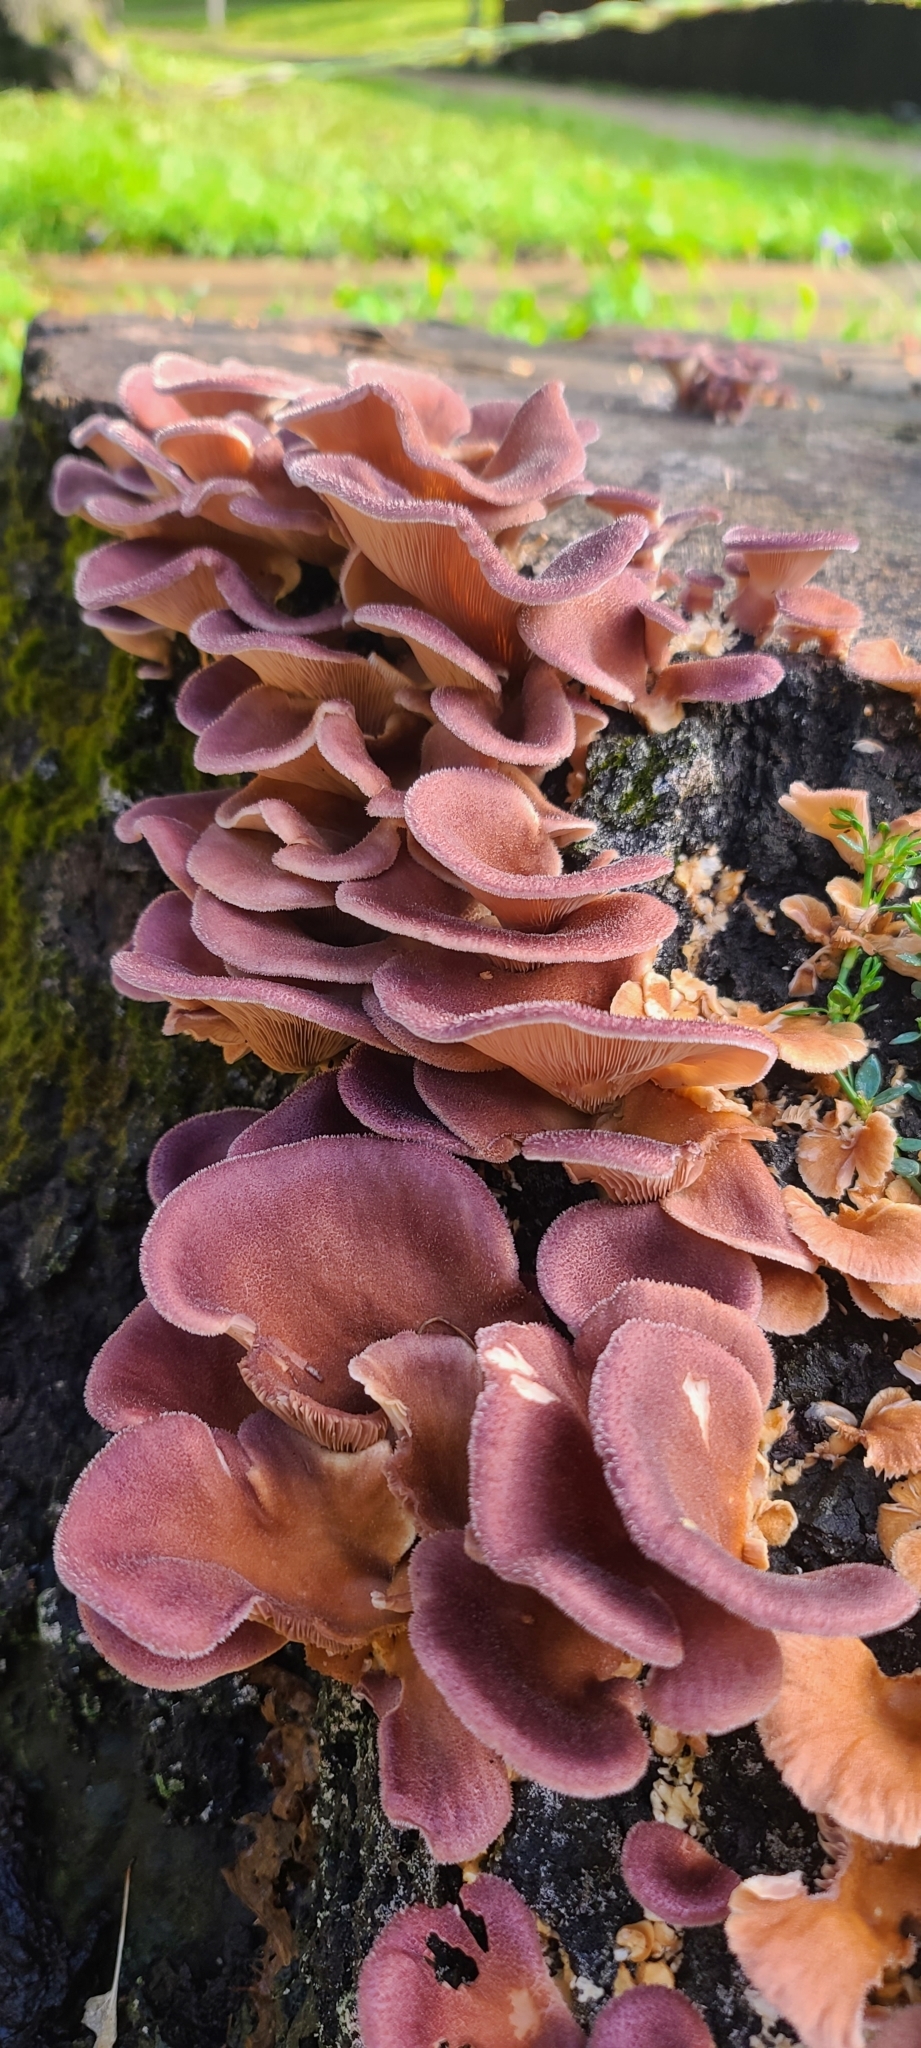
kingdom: Fungi
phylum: Basidiomycota
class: Agaricomycetes
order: Polyporales
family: Panaceae
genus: Panus
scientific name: Panus neostrigosus
